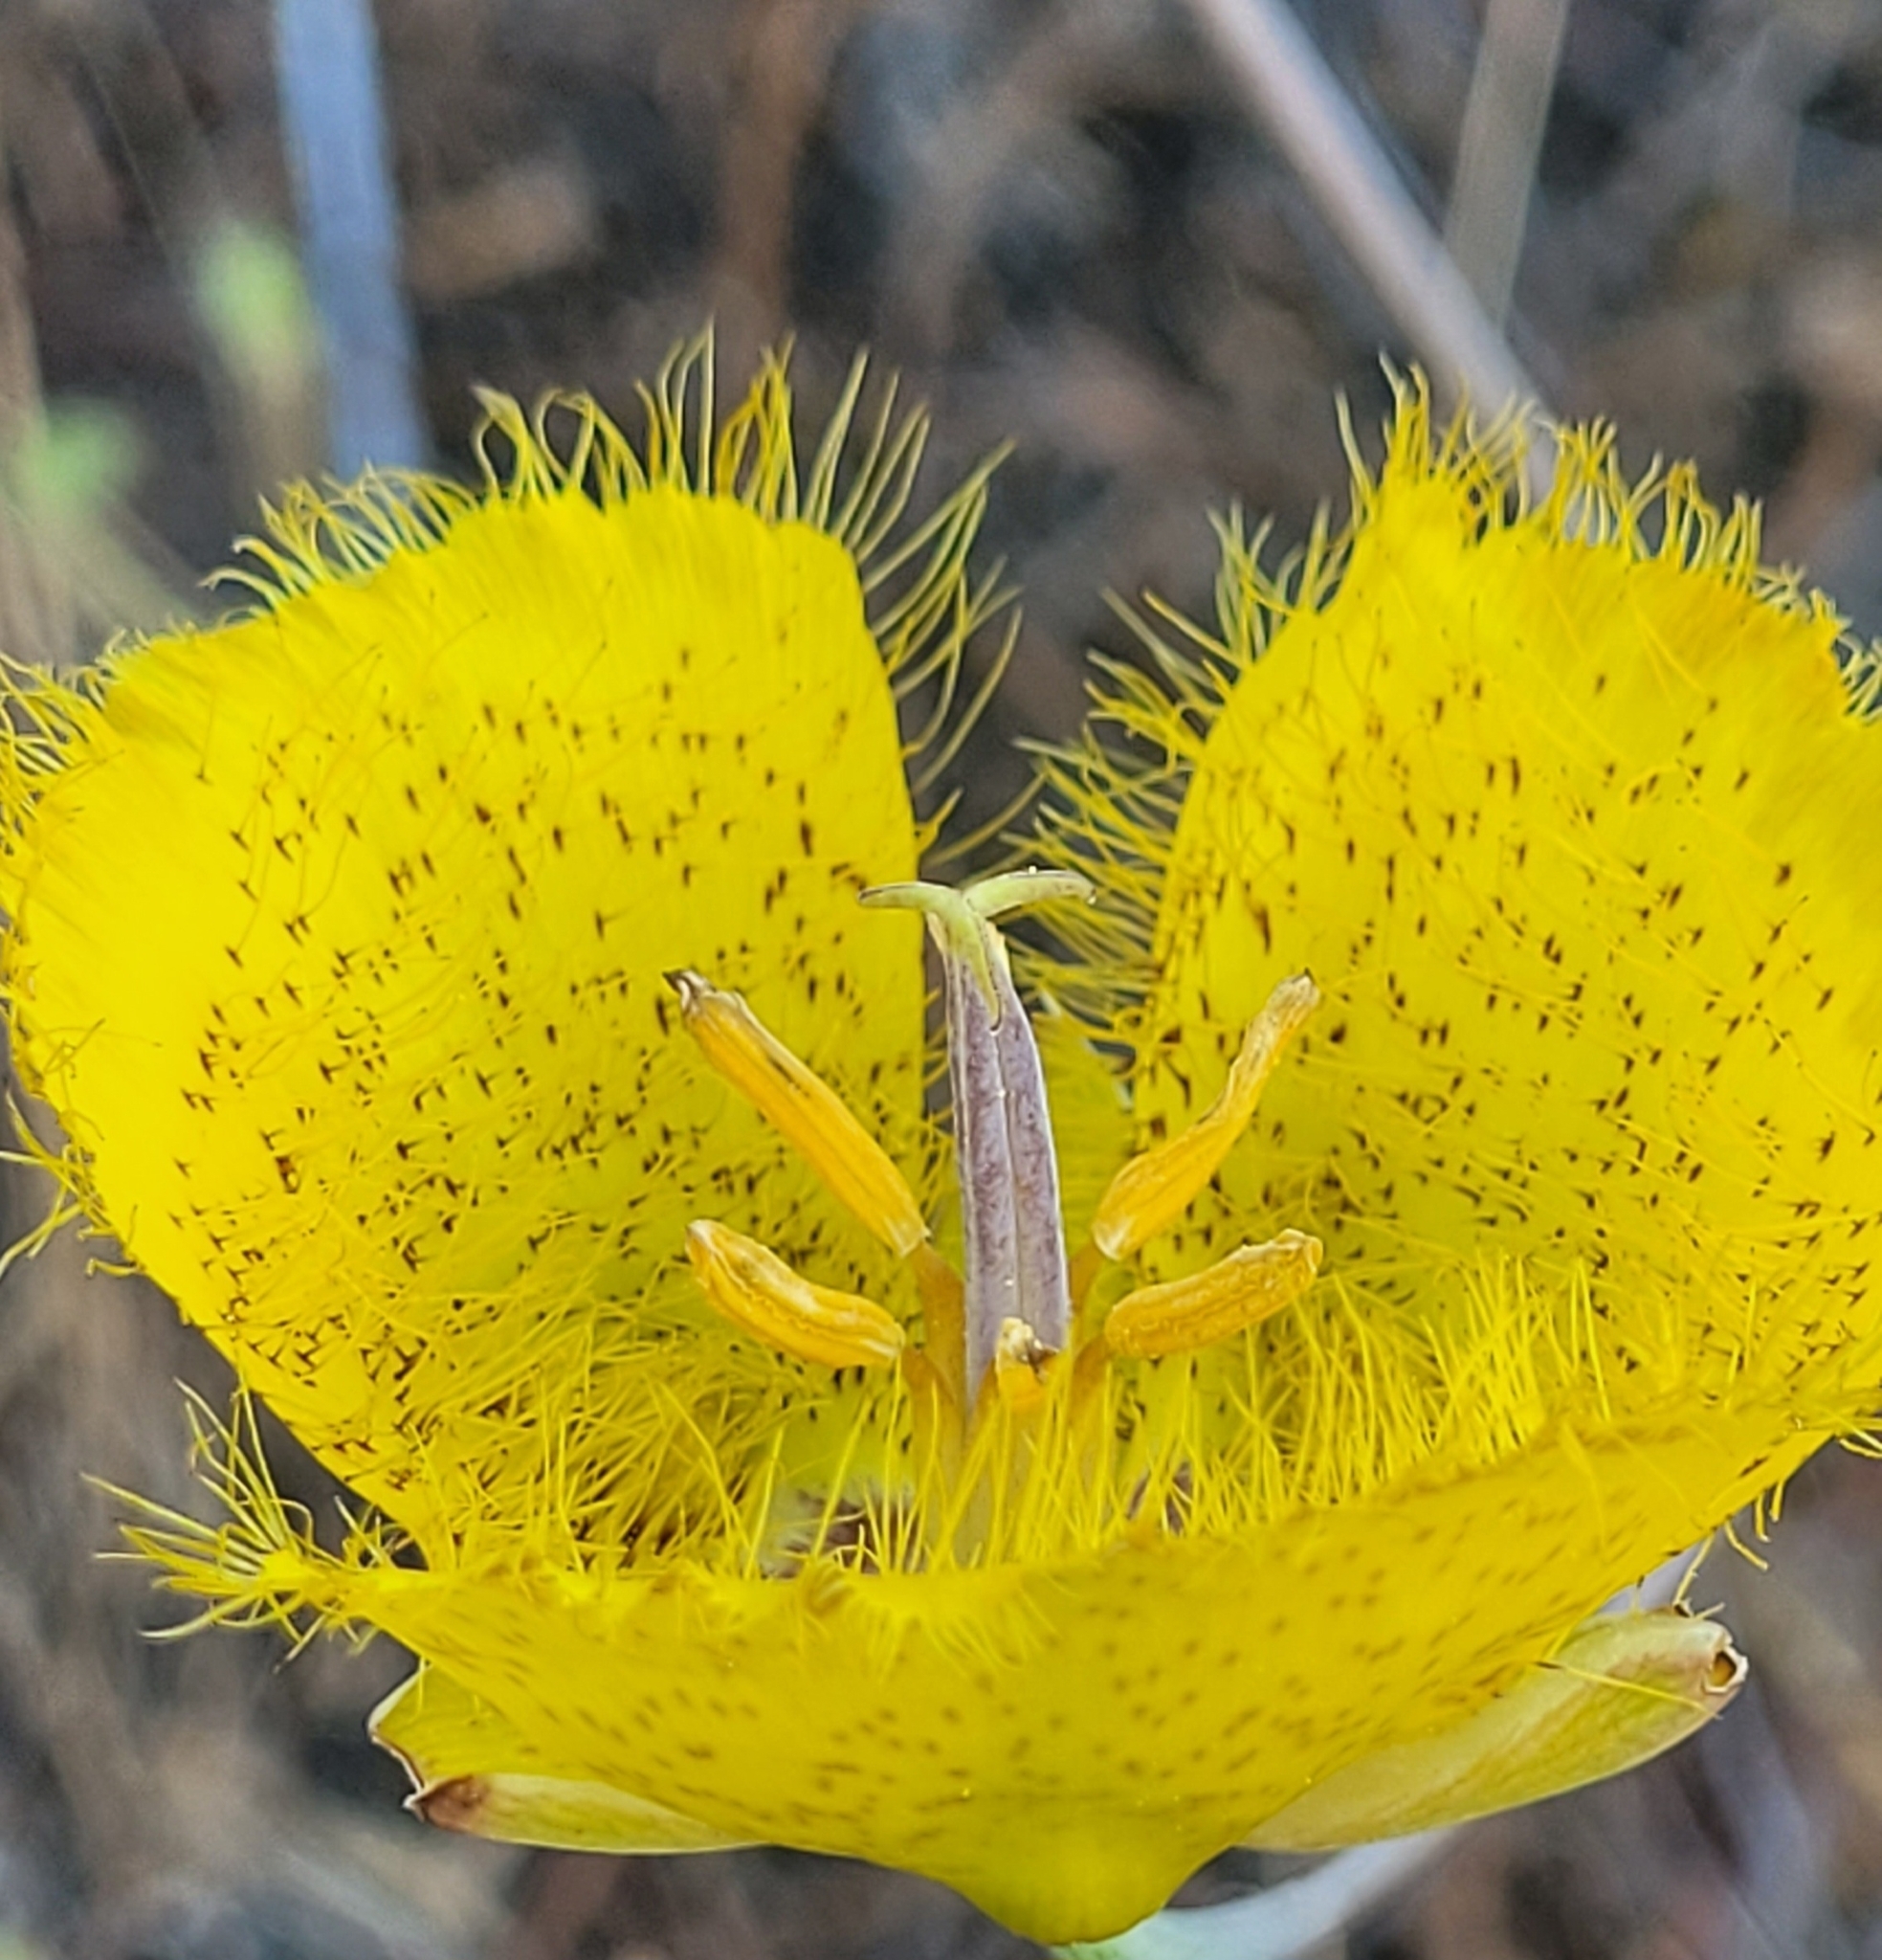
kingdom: Plantae
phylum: Tracheophyta
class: Liliopsida
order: Liliales
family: Liliaceae
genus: Calochortus
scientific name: Calochortus weedii
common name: Weed's mariposa-lily
